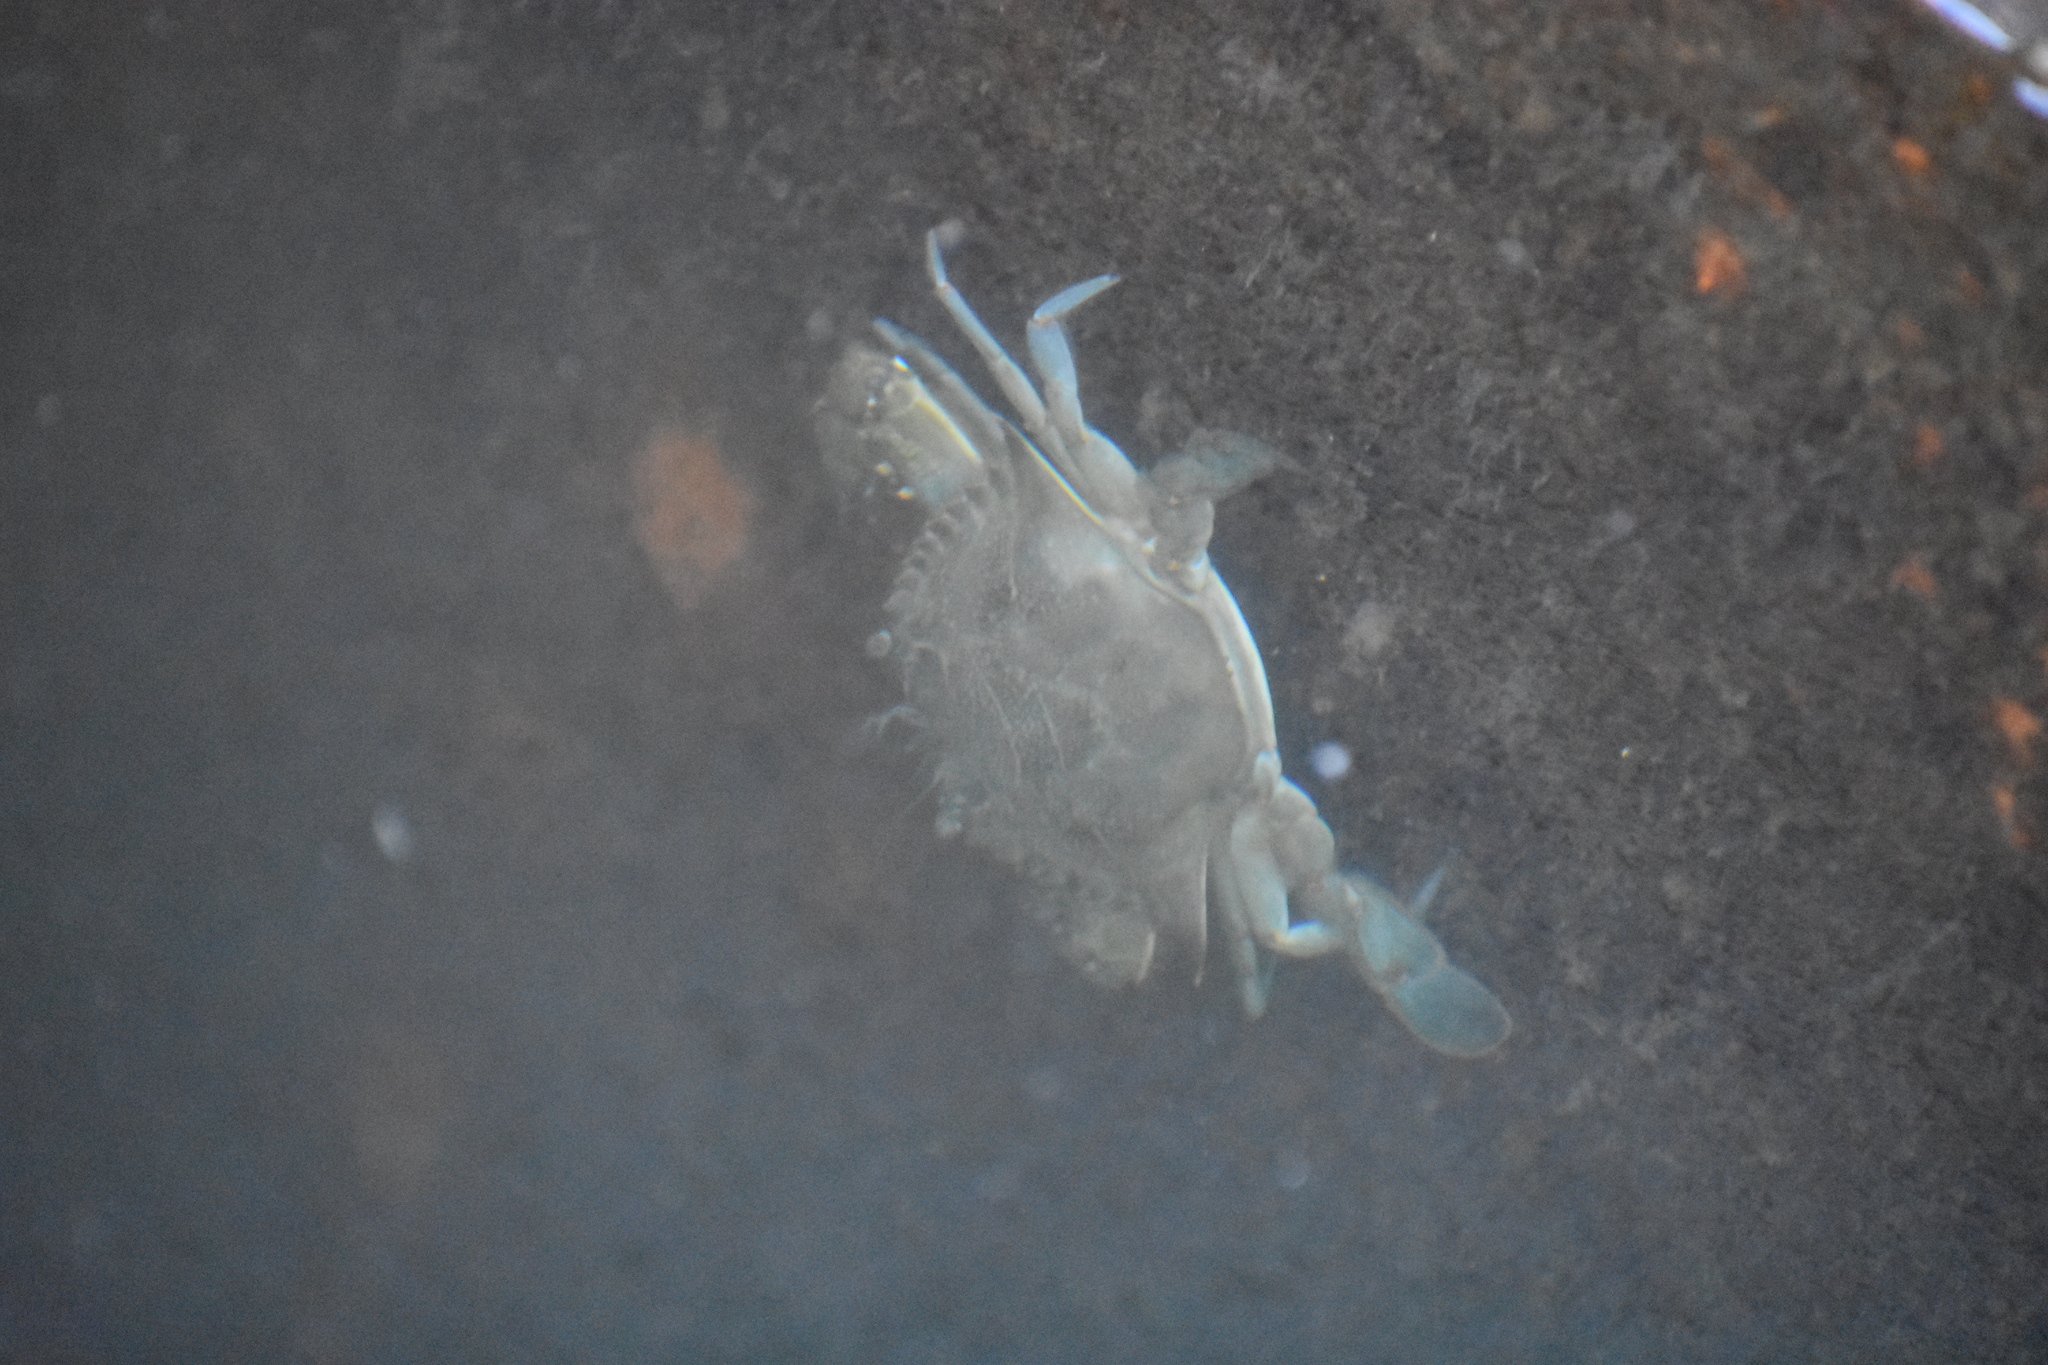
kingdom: Animalia
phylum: Arthropoda
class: Malacostraca
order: Decapoda
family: Portunidae
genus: Callinectes
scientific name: Callinectes sapidus
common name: Blue crab
